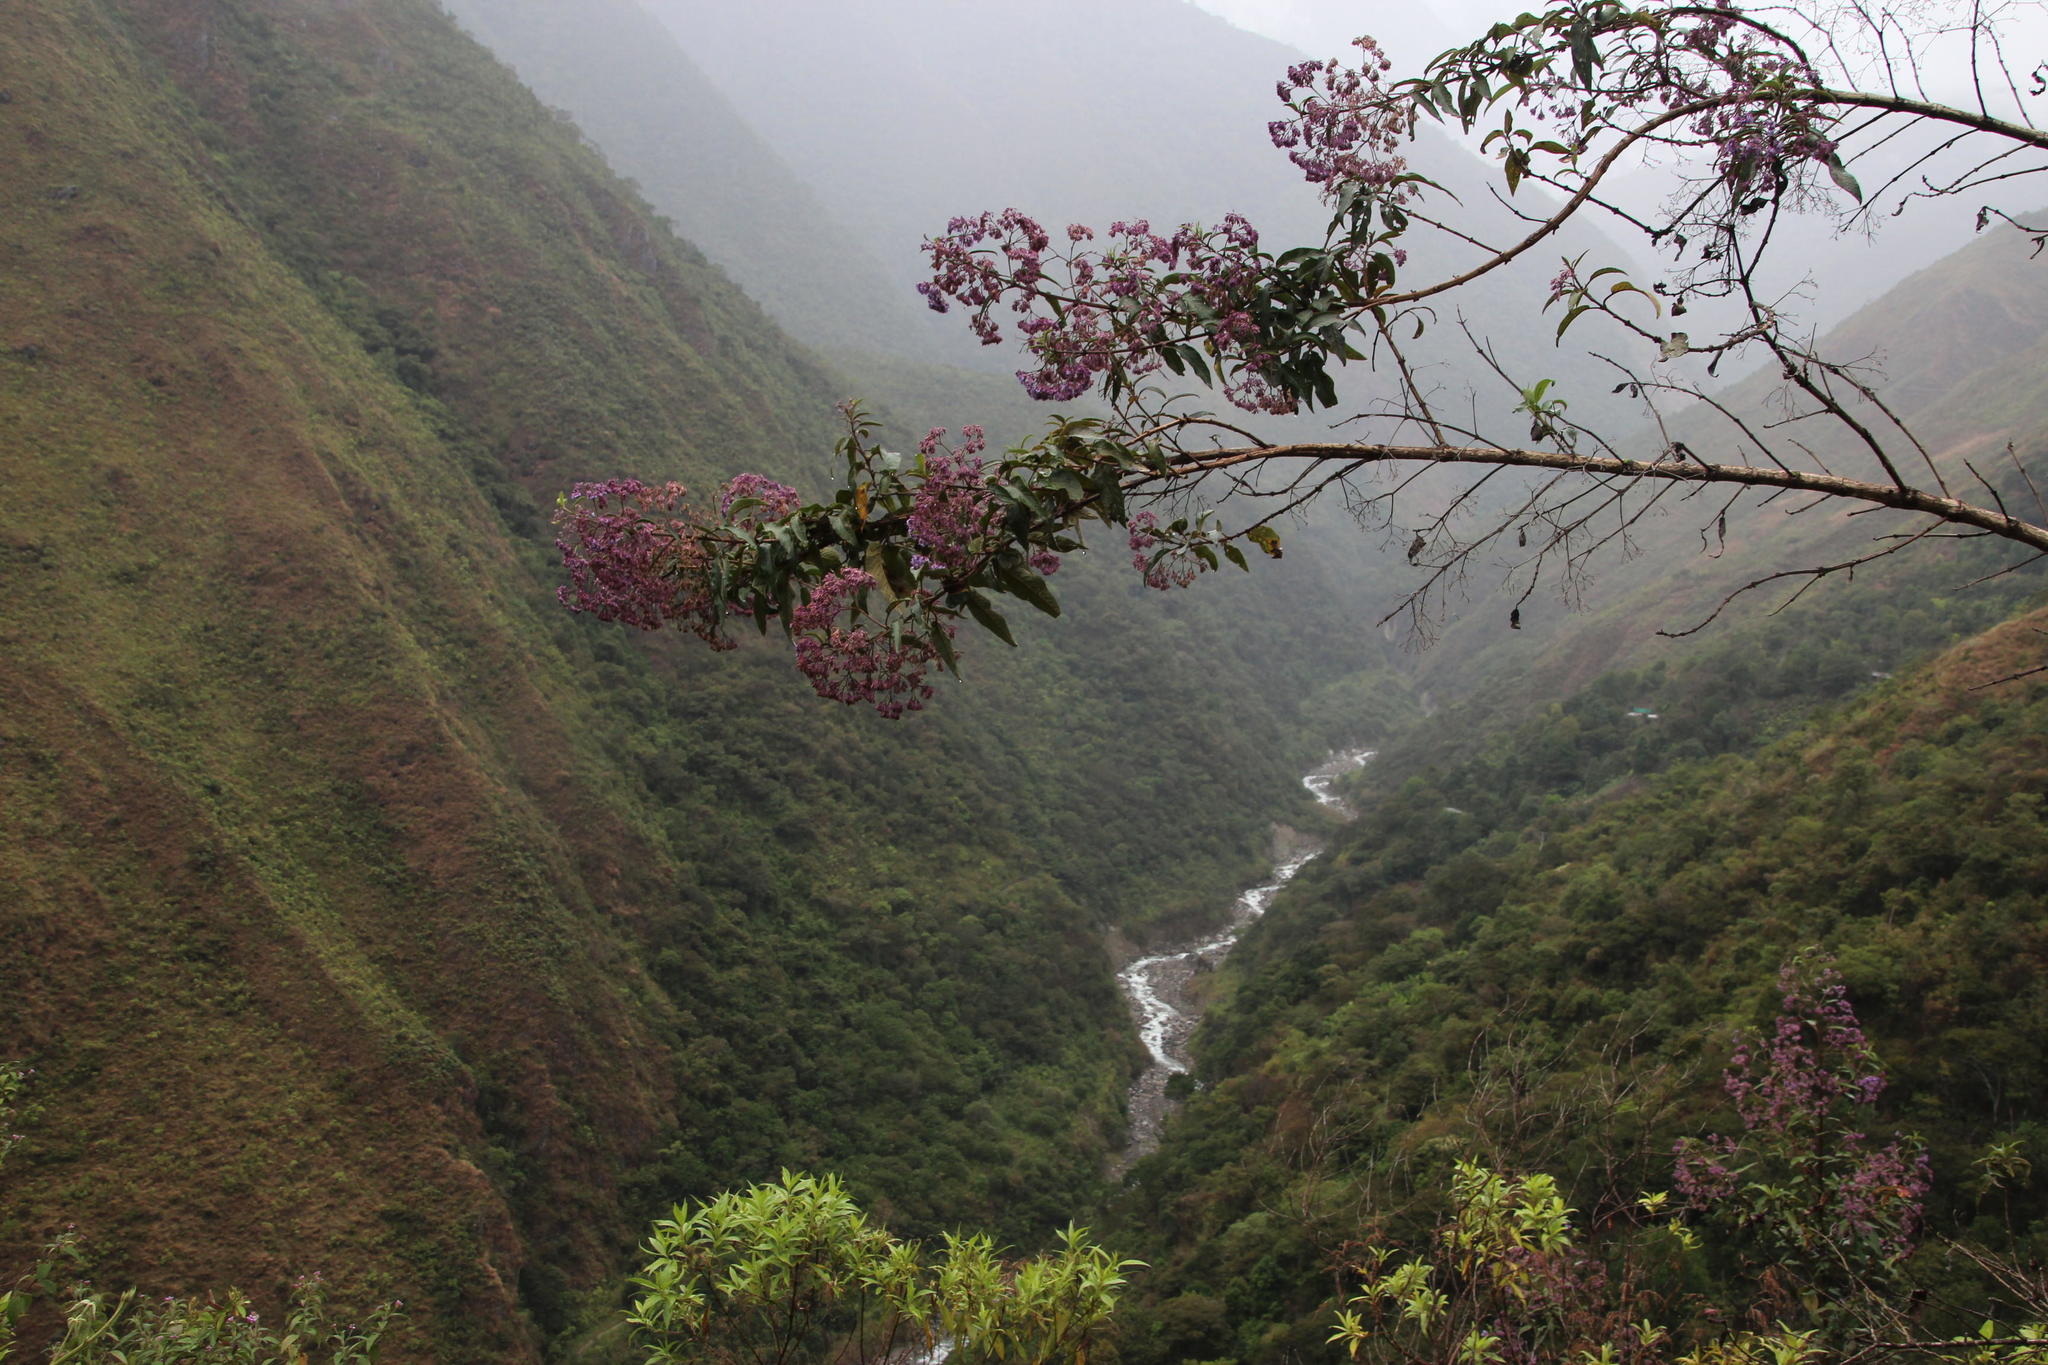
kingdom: Plantae
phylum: Tracheophyta
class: Magnoliopsida
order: Lamiales
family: Lamiaceae
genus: Condea
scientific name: Condea tafallae
